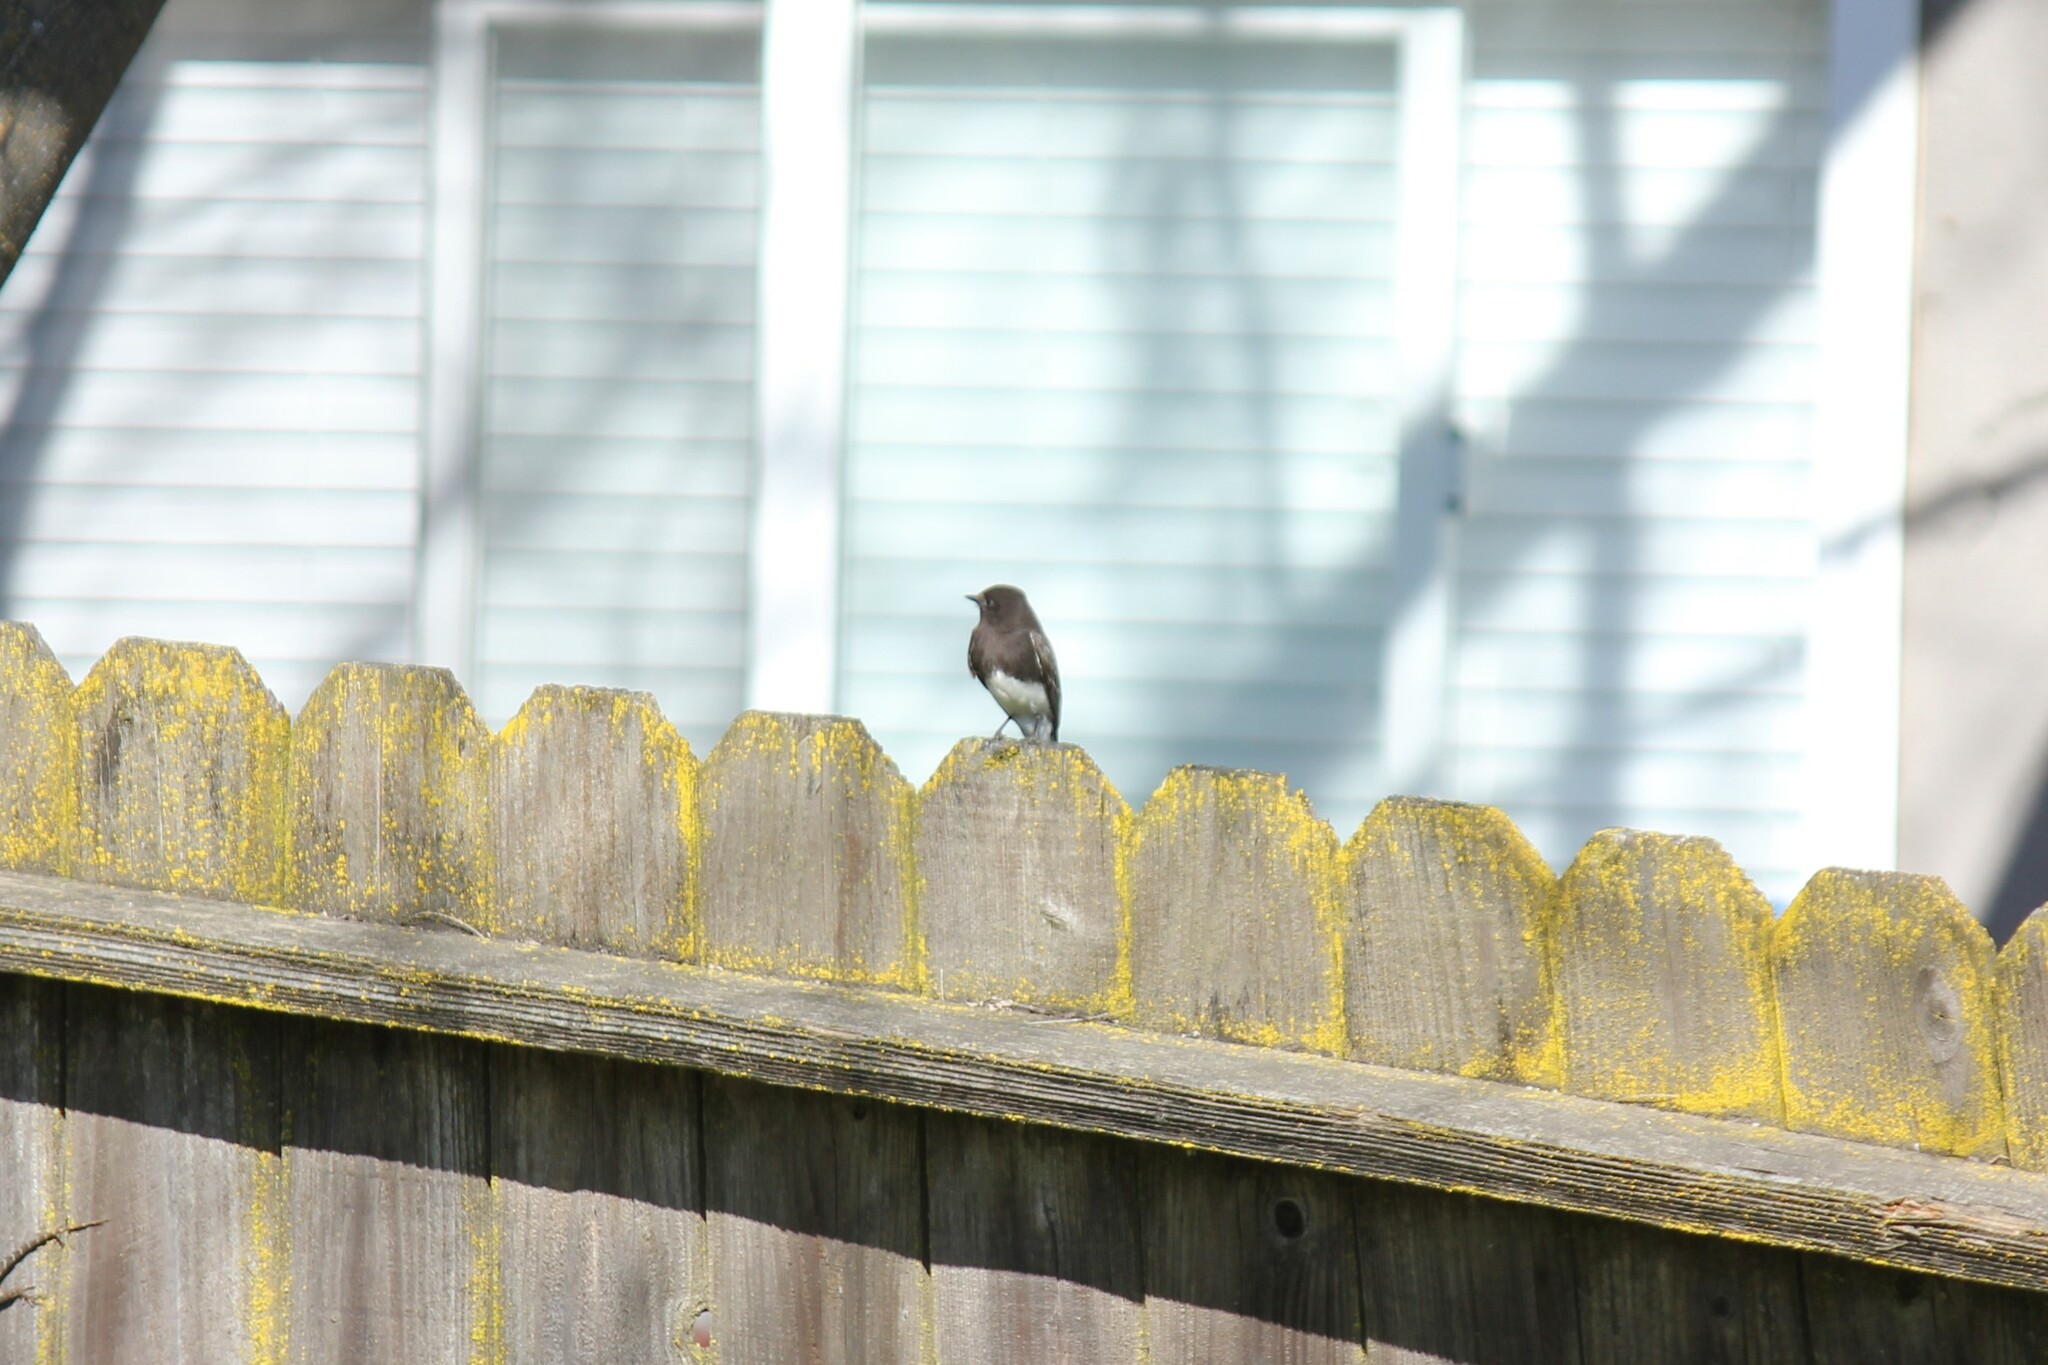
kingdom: Animalia
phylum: Chordata
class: Aves
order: Passeriformes
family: Tyrannidae
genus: Sayornis
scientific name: Sayornis nigricans
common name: Black phoebe
